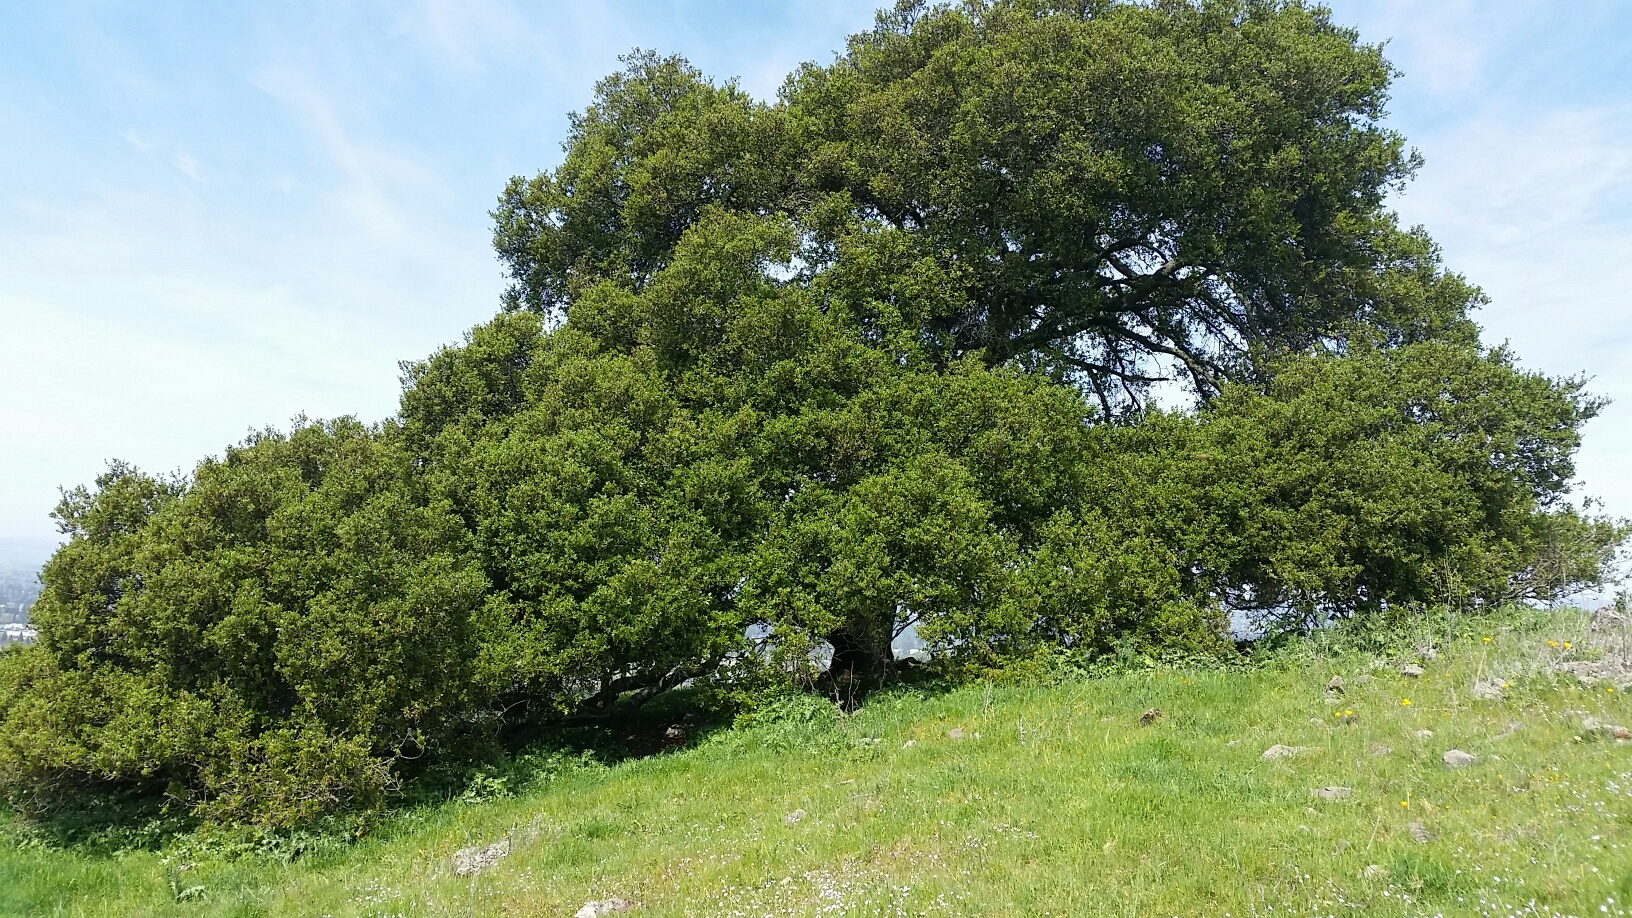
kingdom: Plantae
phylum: Tracheophyta
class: Magnoliopsida
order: Fagales
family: Fagaceae
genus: Quercus
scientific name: Quercus agrifolia
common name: California live oak
